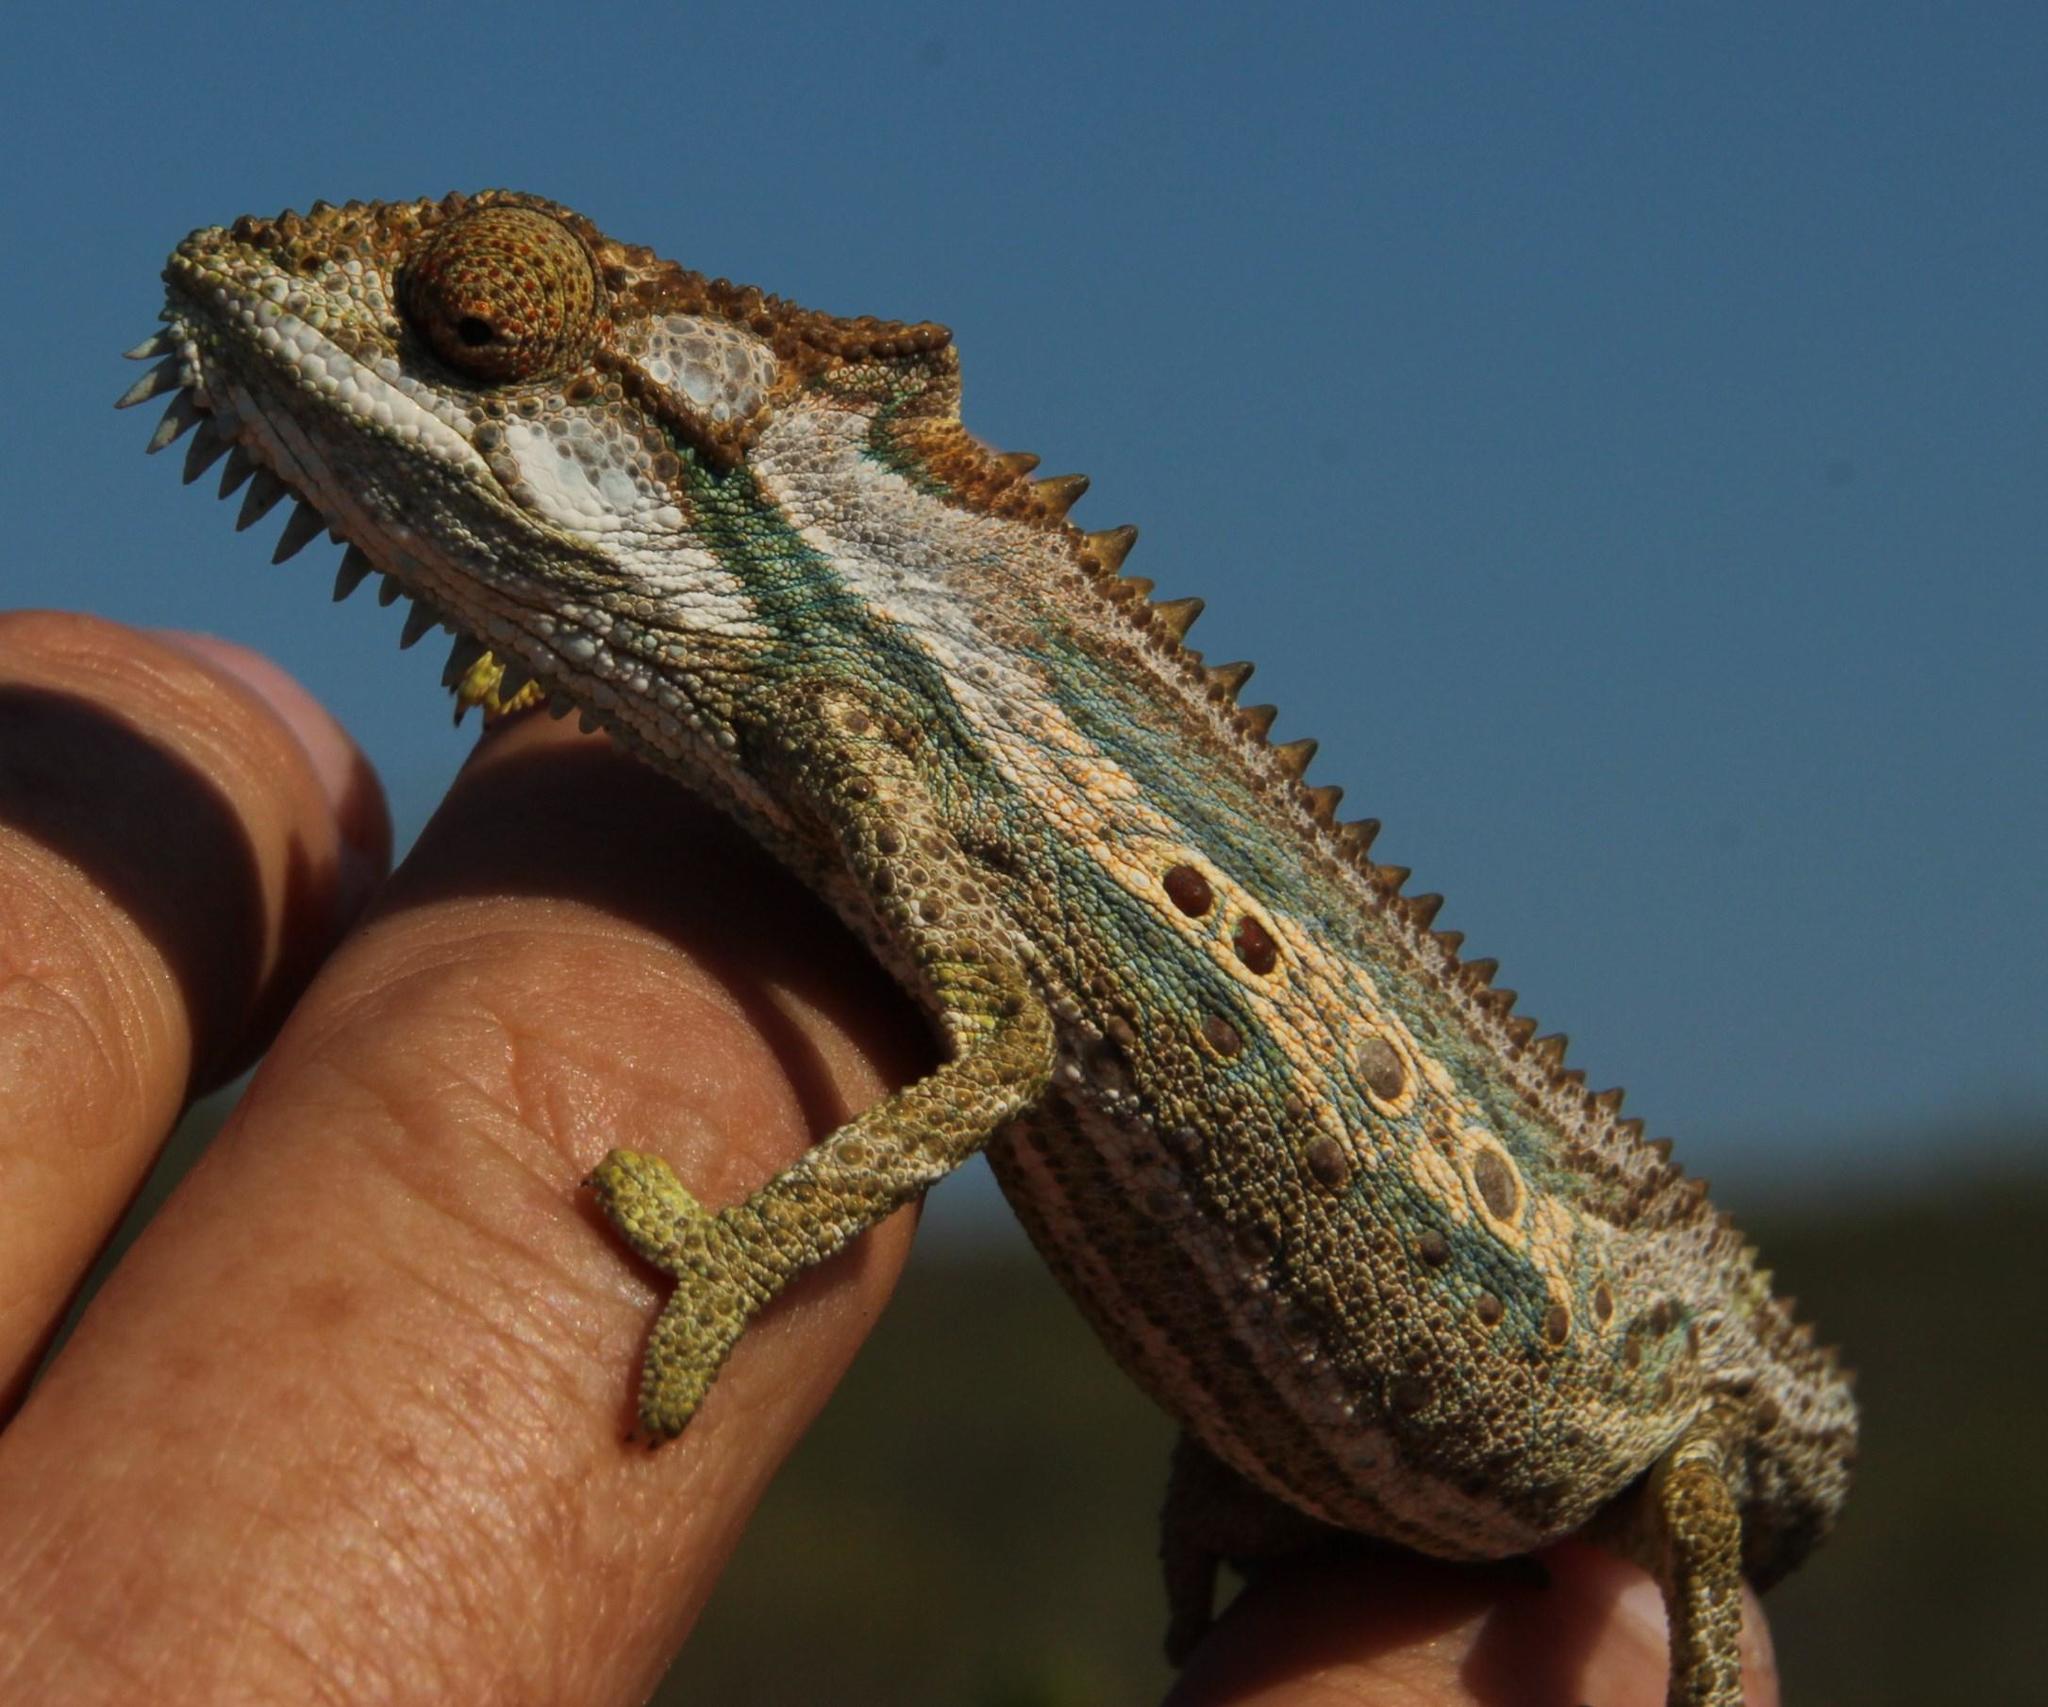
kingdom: Animalia
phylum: Chordata
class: Squamata
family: Chamaeleonidae
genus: Bradypodion
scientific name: Bradypodion gutturale
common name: Little karoo dwarf chameleon
